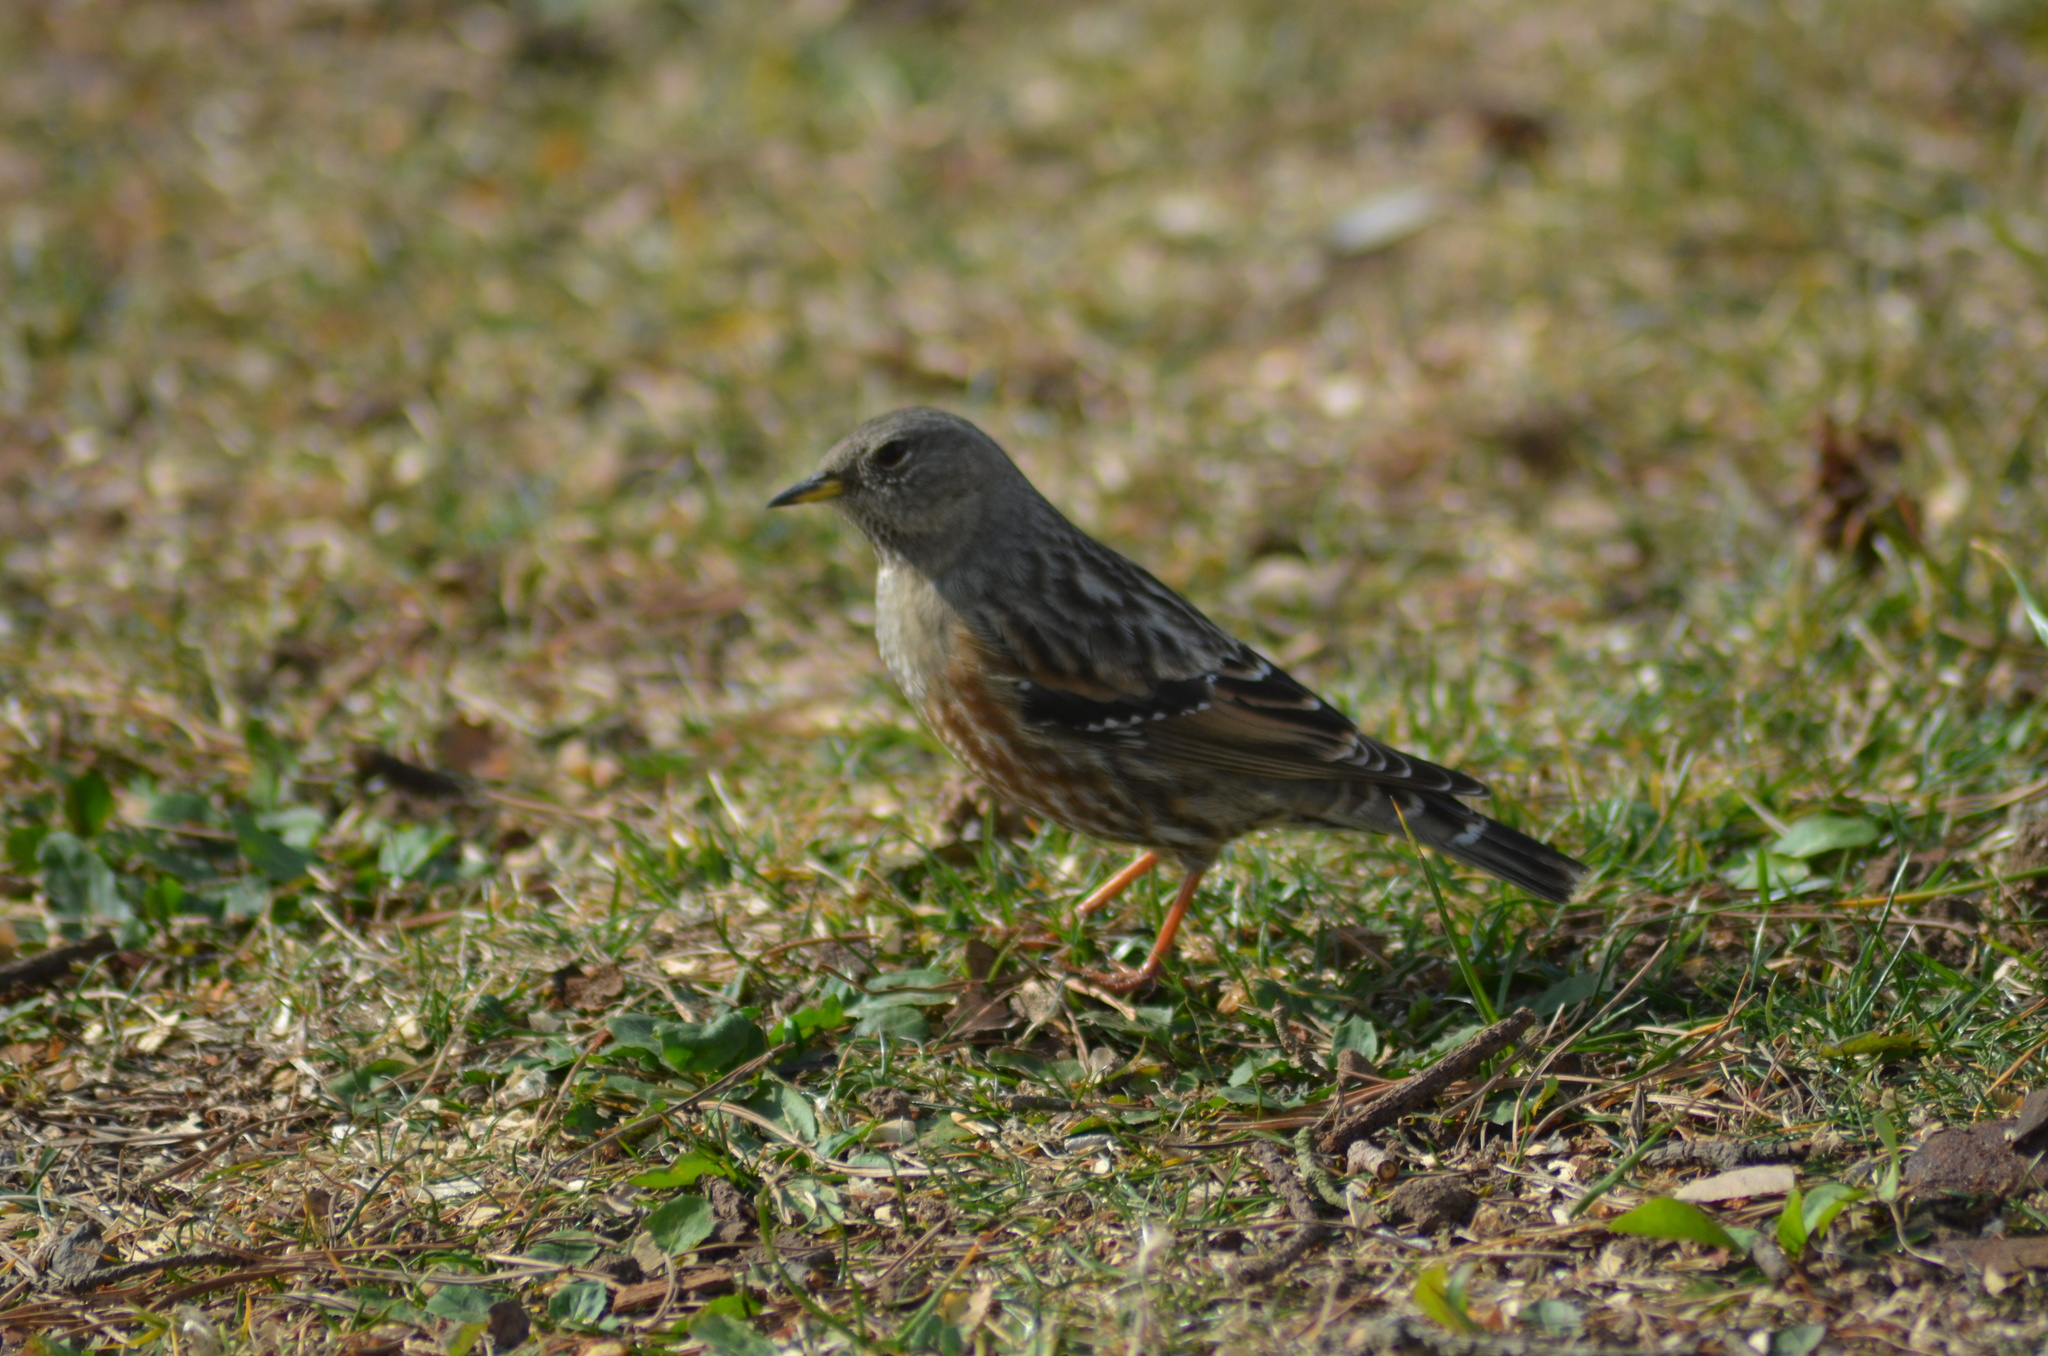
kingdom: Animalia
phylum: Chordata
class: Aves
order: Passeriformes
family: Prunellidae
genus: Prunella
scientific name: Prunella collaris
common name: Alpine accentor
